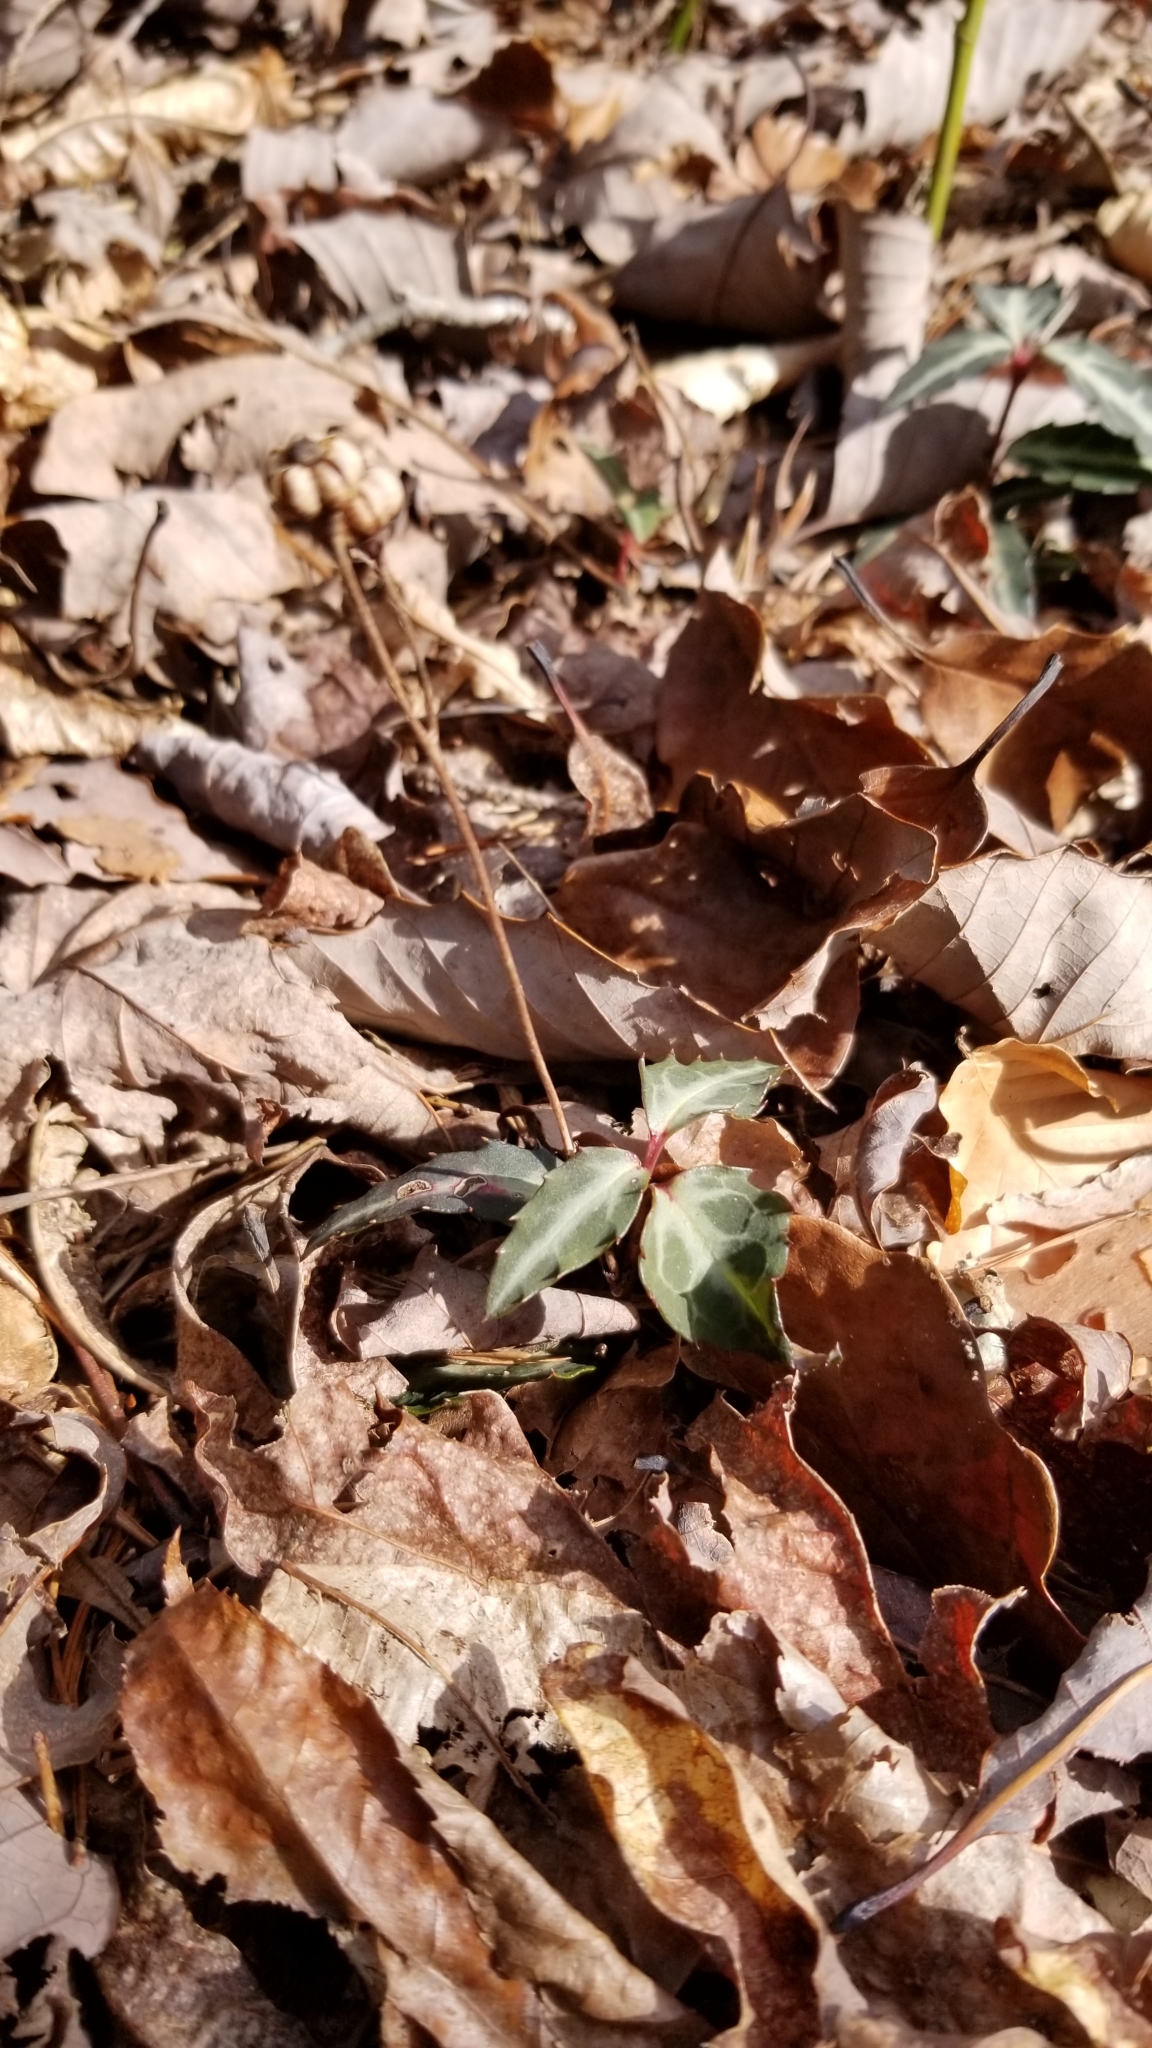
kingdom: Plantae
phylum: Tracheophyta
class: Magnoliopsida
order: Ericales
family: Ericaceae
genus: Chimaphila
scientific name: Chimaphila maculata
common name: Spotted pipsissewa
